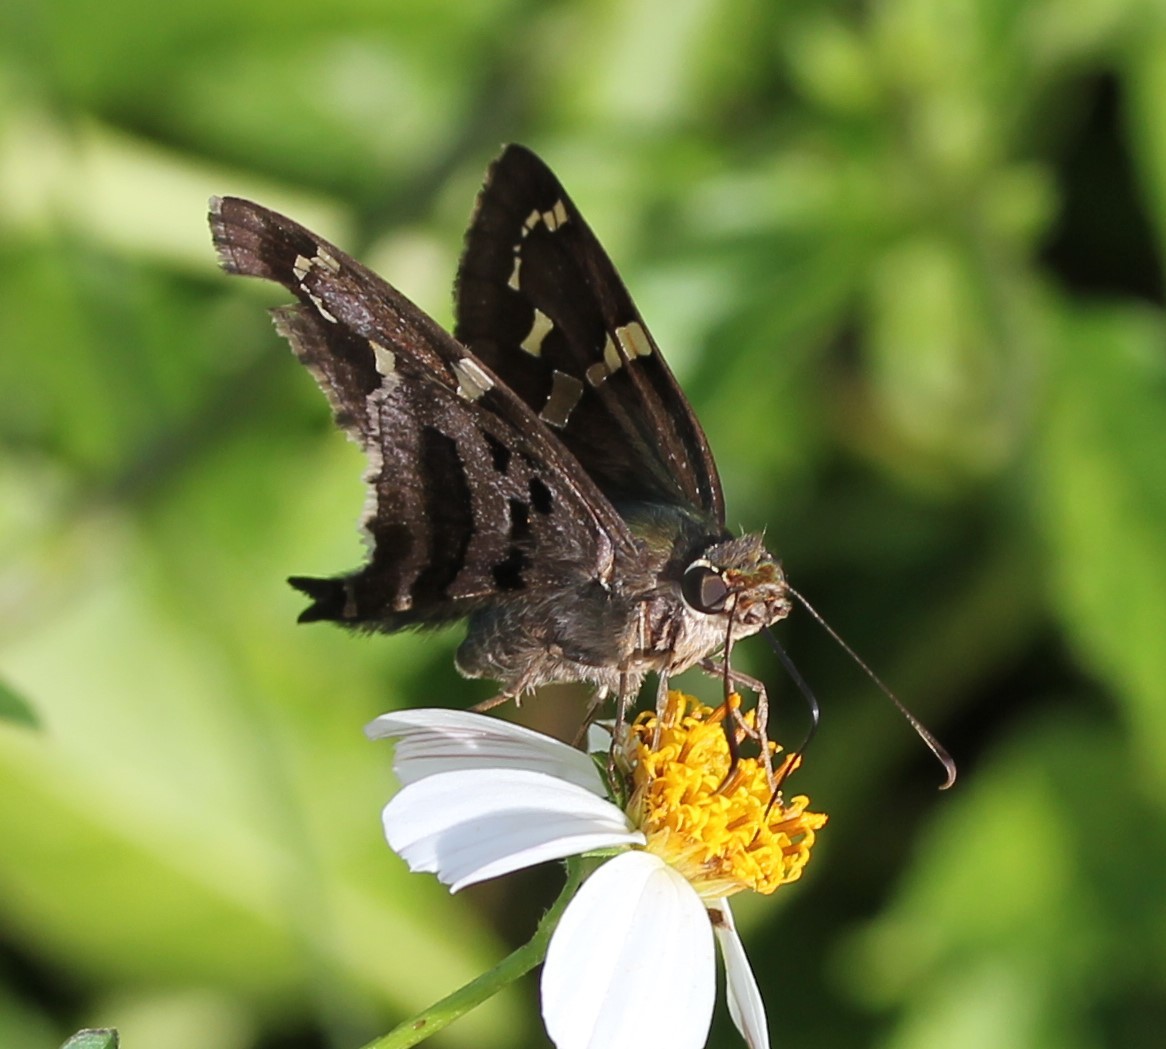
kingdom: Animalia
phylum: Arthropoda
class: Insecta
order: Lepidoptera
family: Hesperiidae
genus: Urbanus
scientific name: Urbanus proteus
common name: Long-tailed skipper
